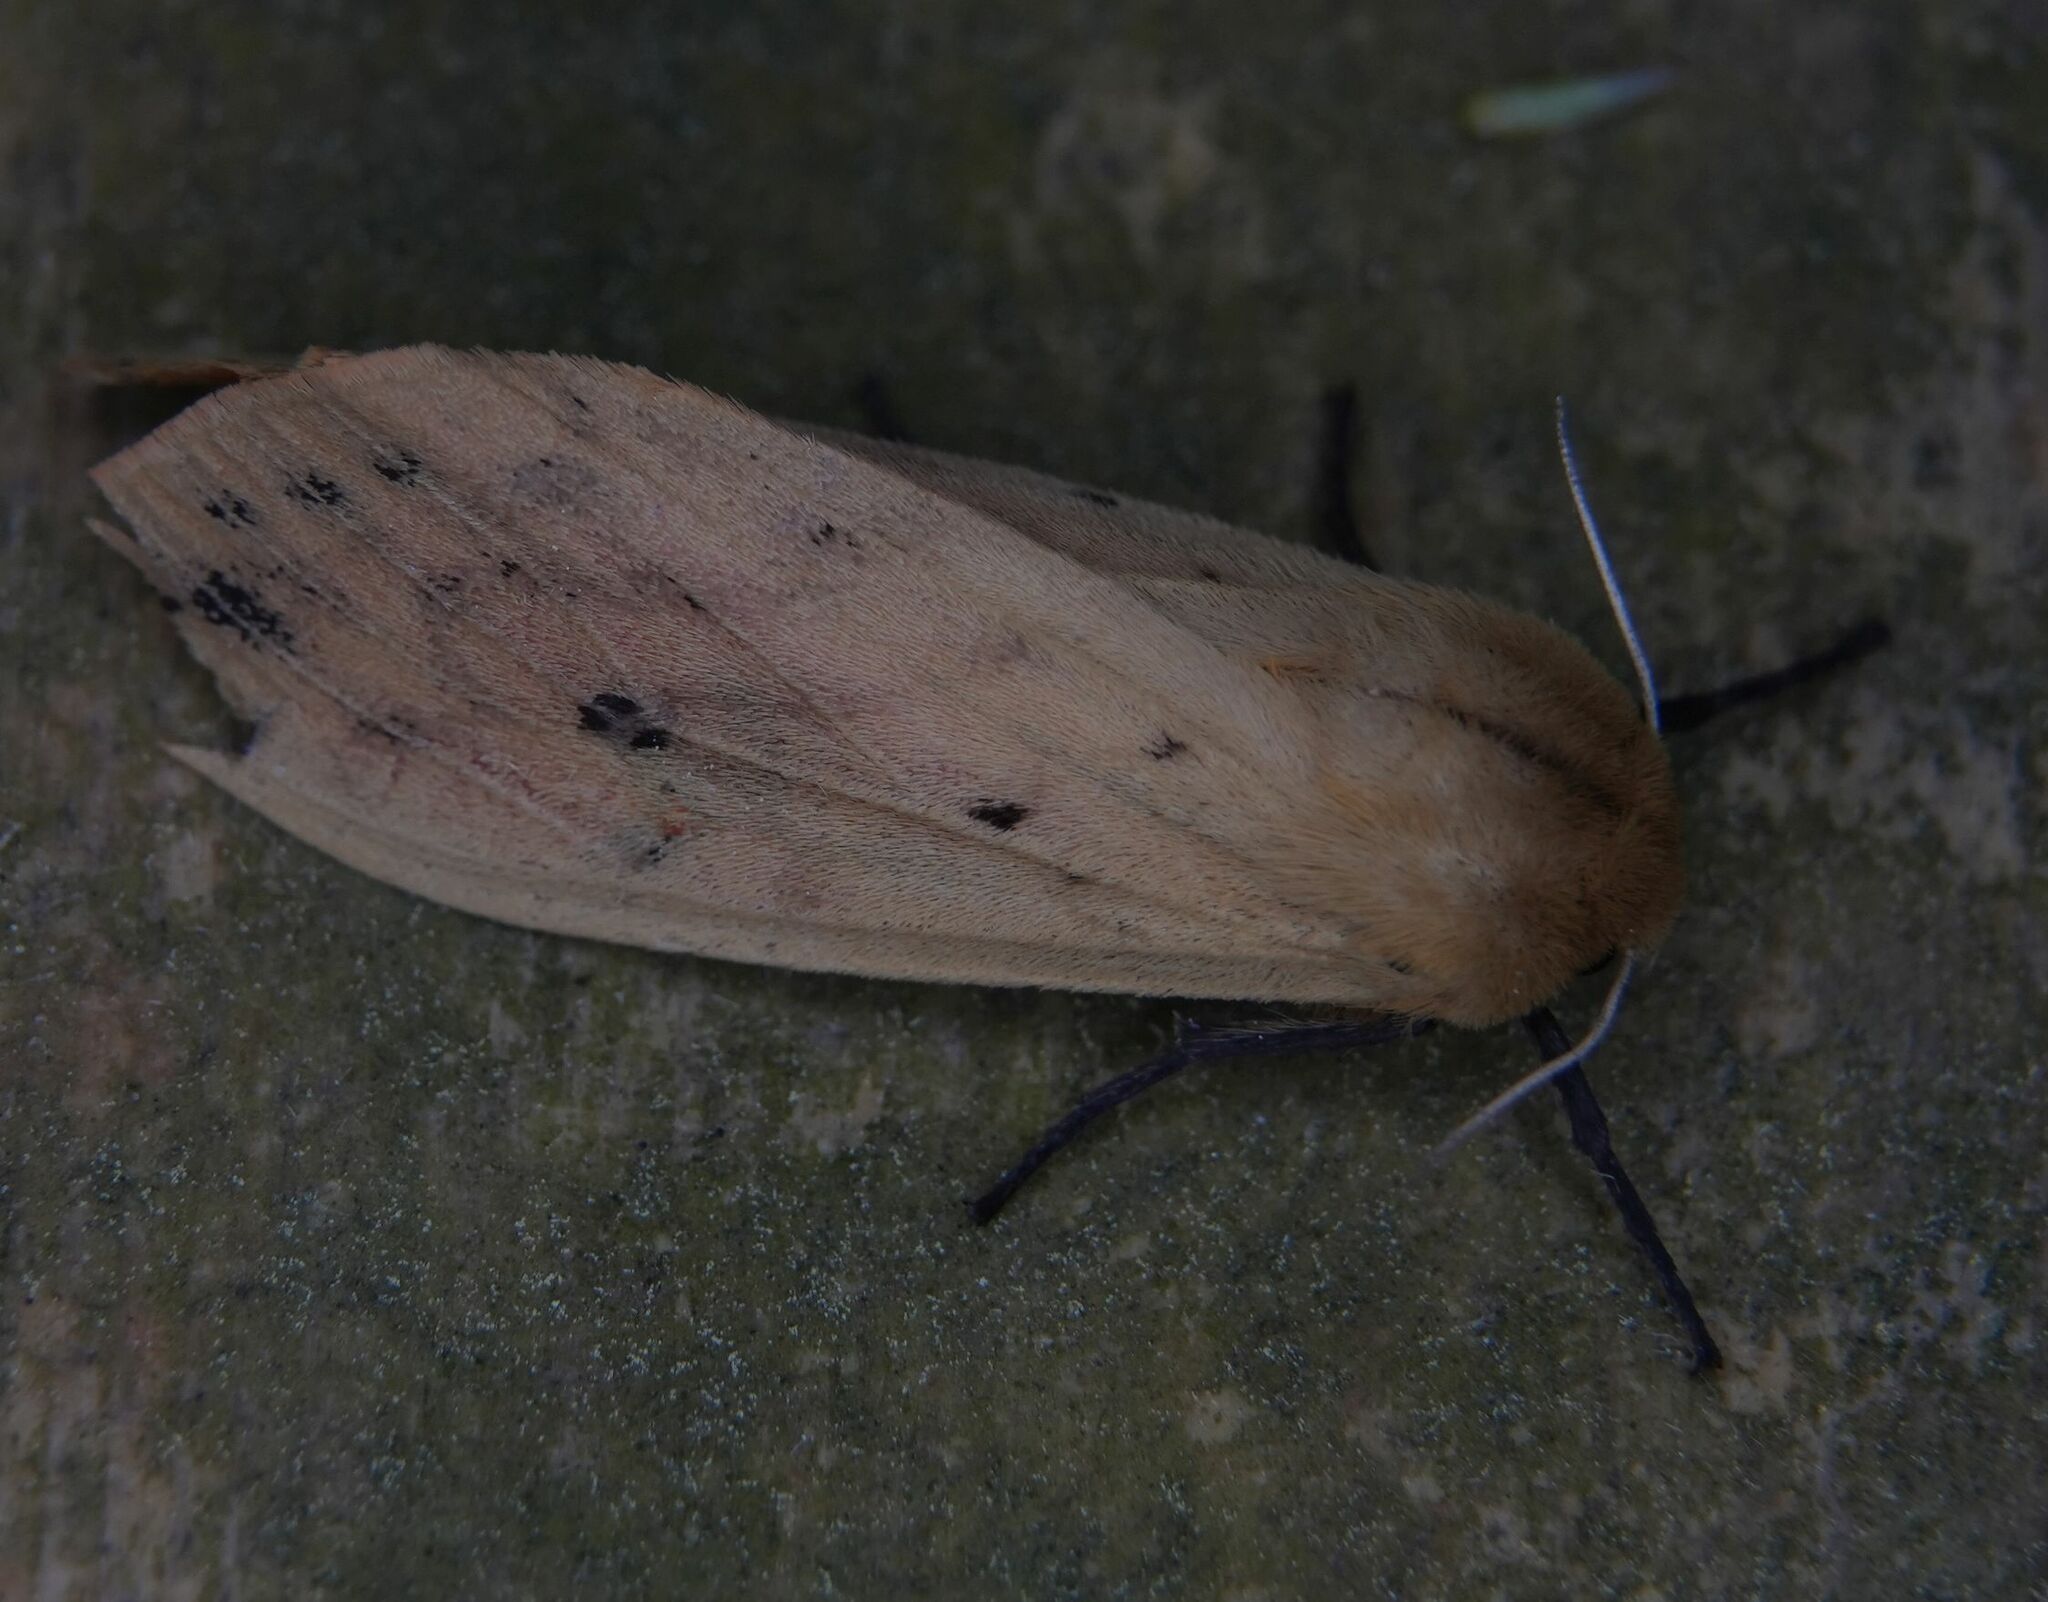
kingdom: Animalia
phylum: Arthropoda
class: Insecta
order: Lepidoptera
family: Erebidae
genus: Pyrrharctia
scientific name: Pyrrharctia isabella
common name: Isabella tiger moth
